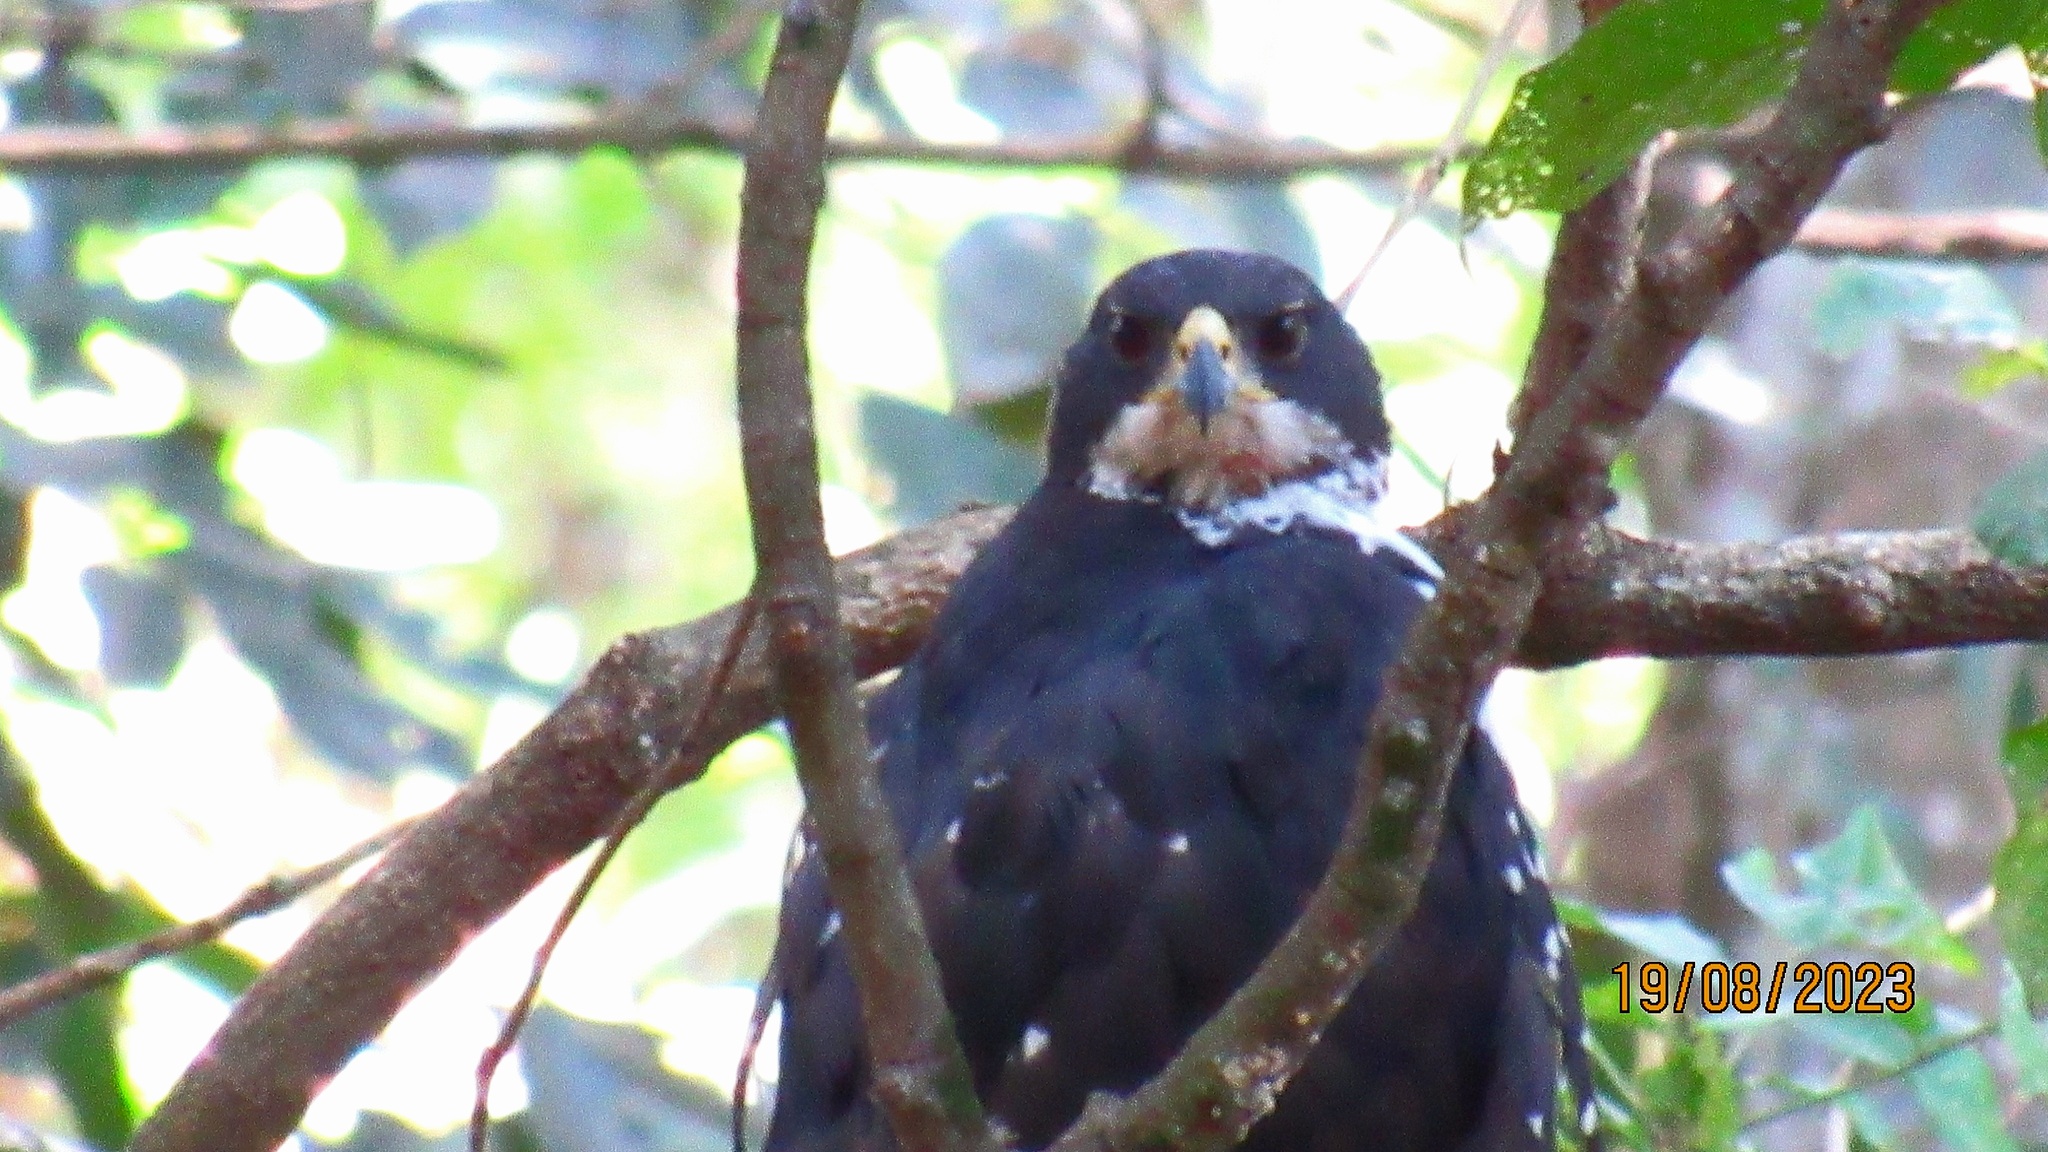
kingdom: Animalia
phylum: Chordata
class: Aves
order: Accipitriformes
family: Accipitridae
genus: Accipiter
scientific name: Accipiter melanoleucus
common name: Black sparrowhawk
